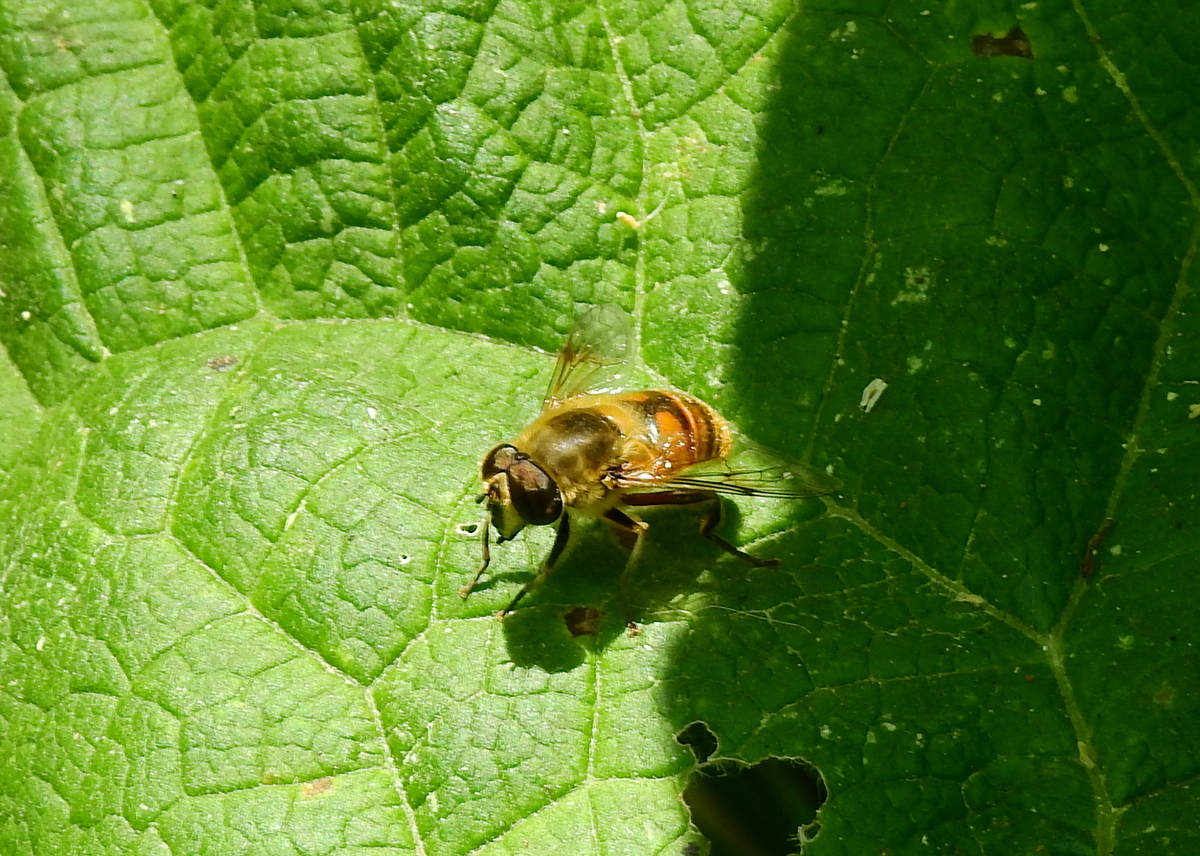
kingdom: Animalia
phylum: Arthropoda
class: Insecta
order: Diptera
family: Syrphidae
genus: Eristalis
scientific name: Eristalis tenax
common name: Drone fly
